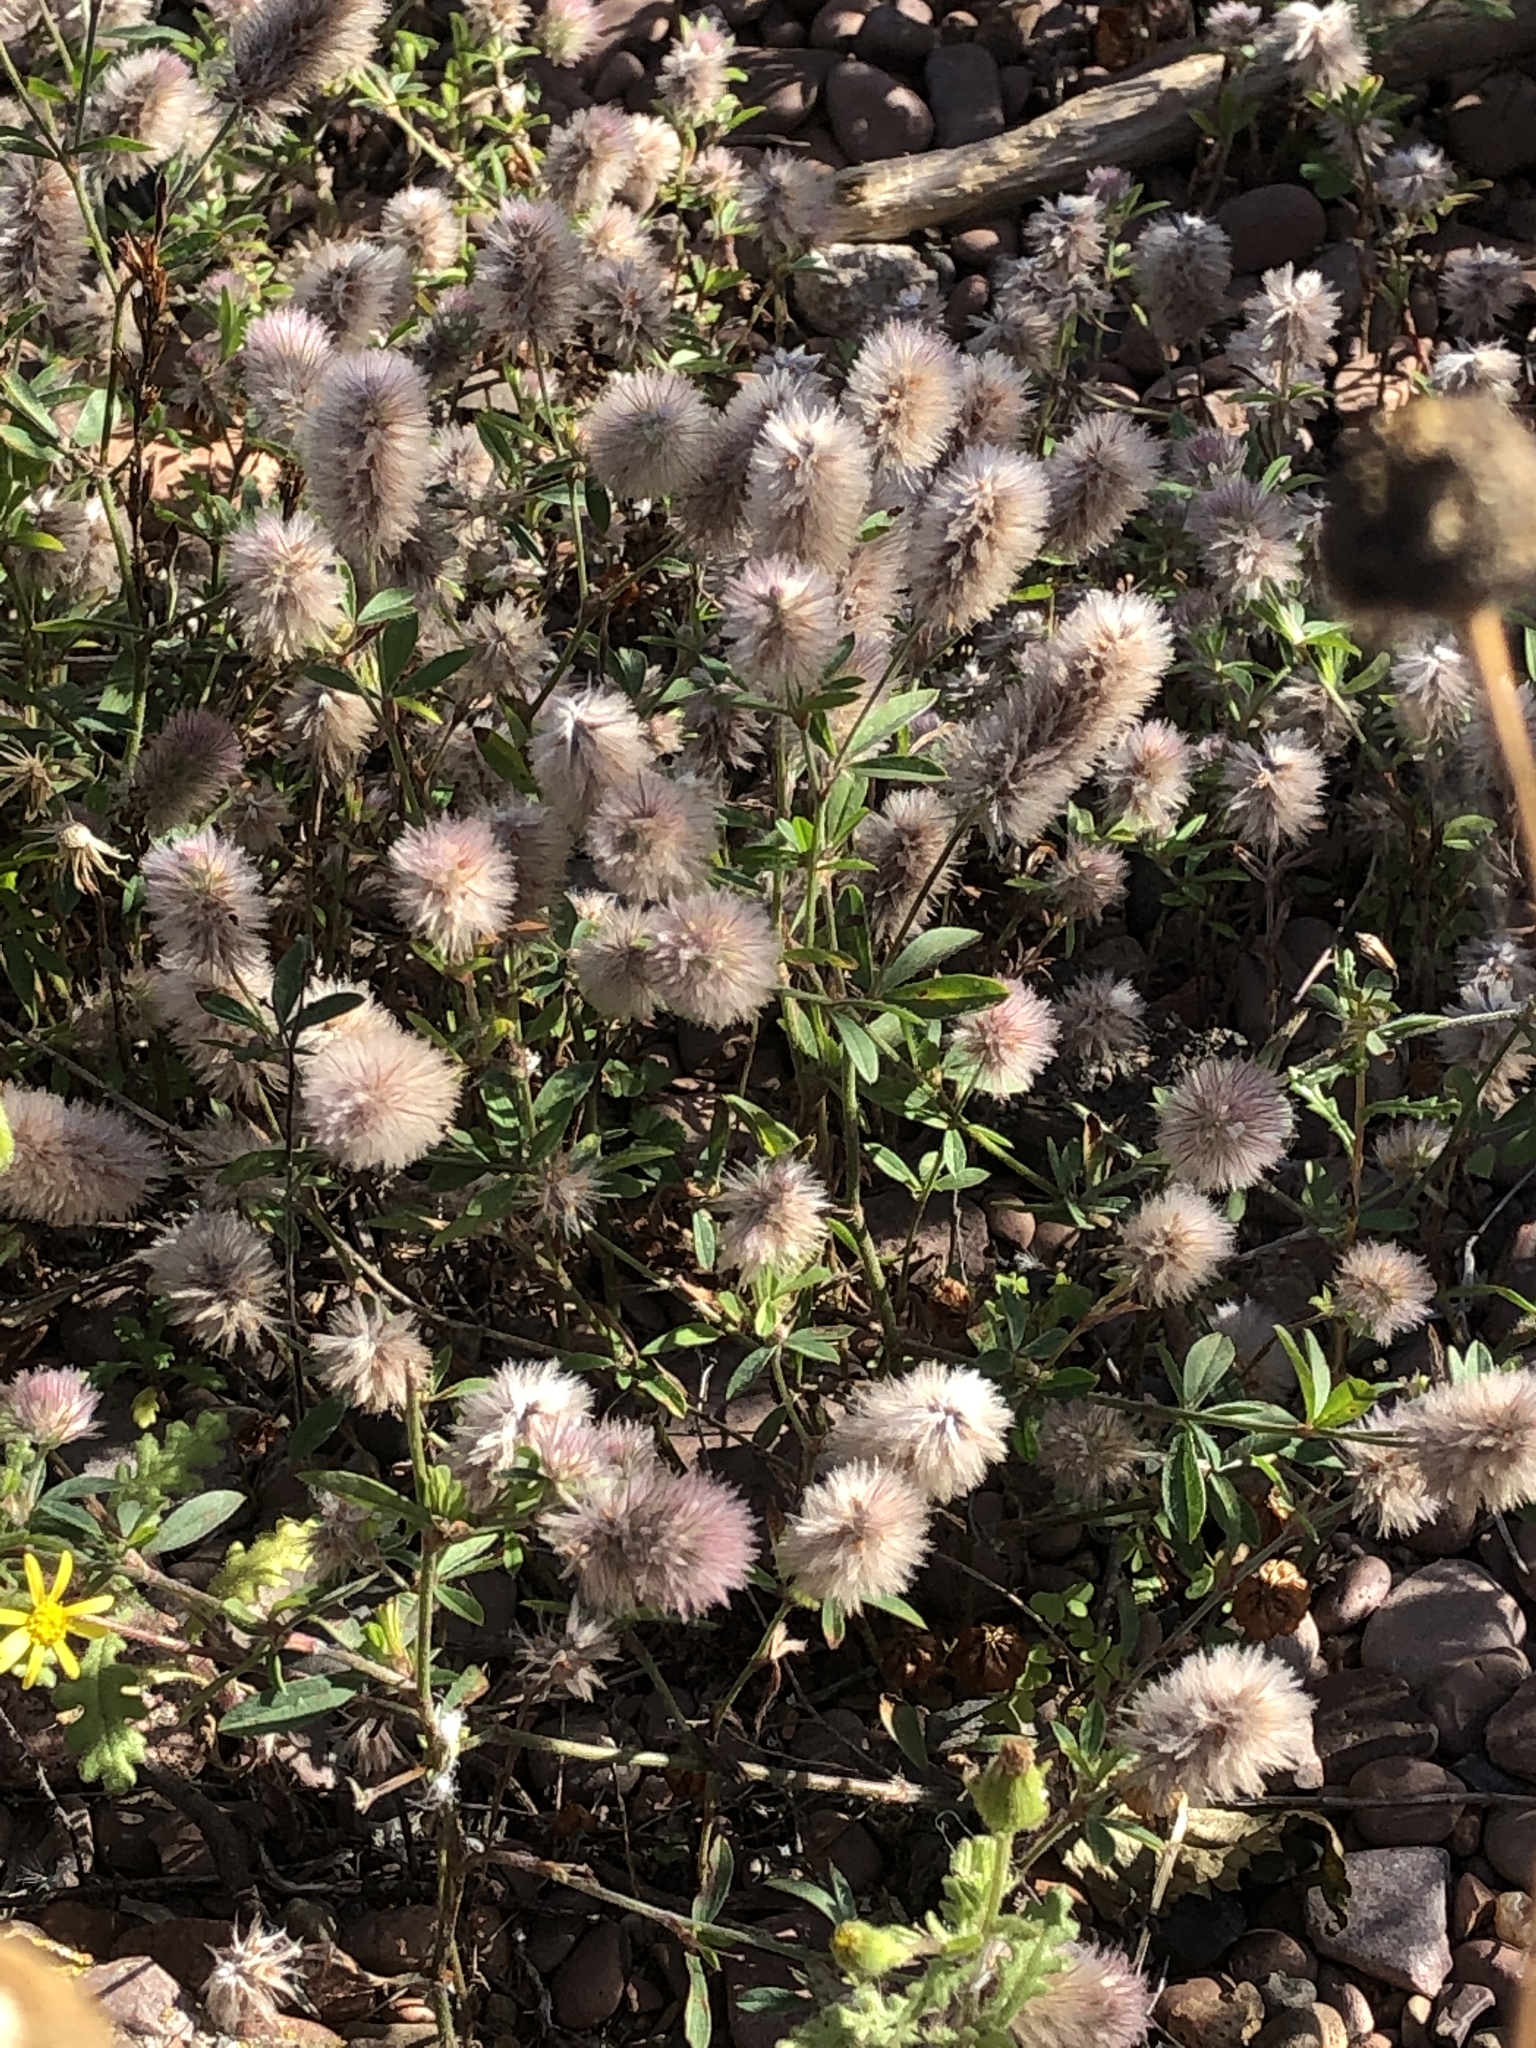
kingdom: Plantae
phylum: Tracheophyta
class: Magnoliopsida
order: Fabales
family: Fabaceae
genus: Trifolium
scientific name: Trifolium arvense
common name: Hare's-foot clover
